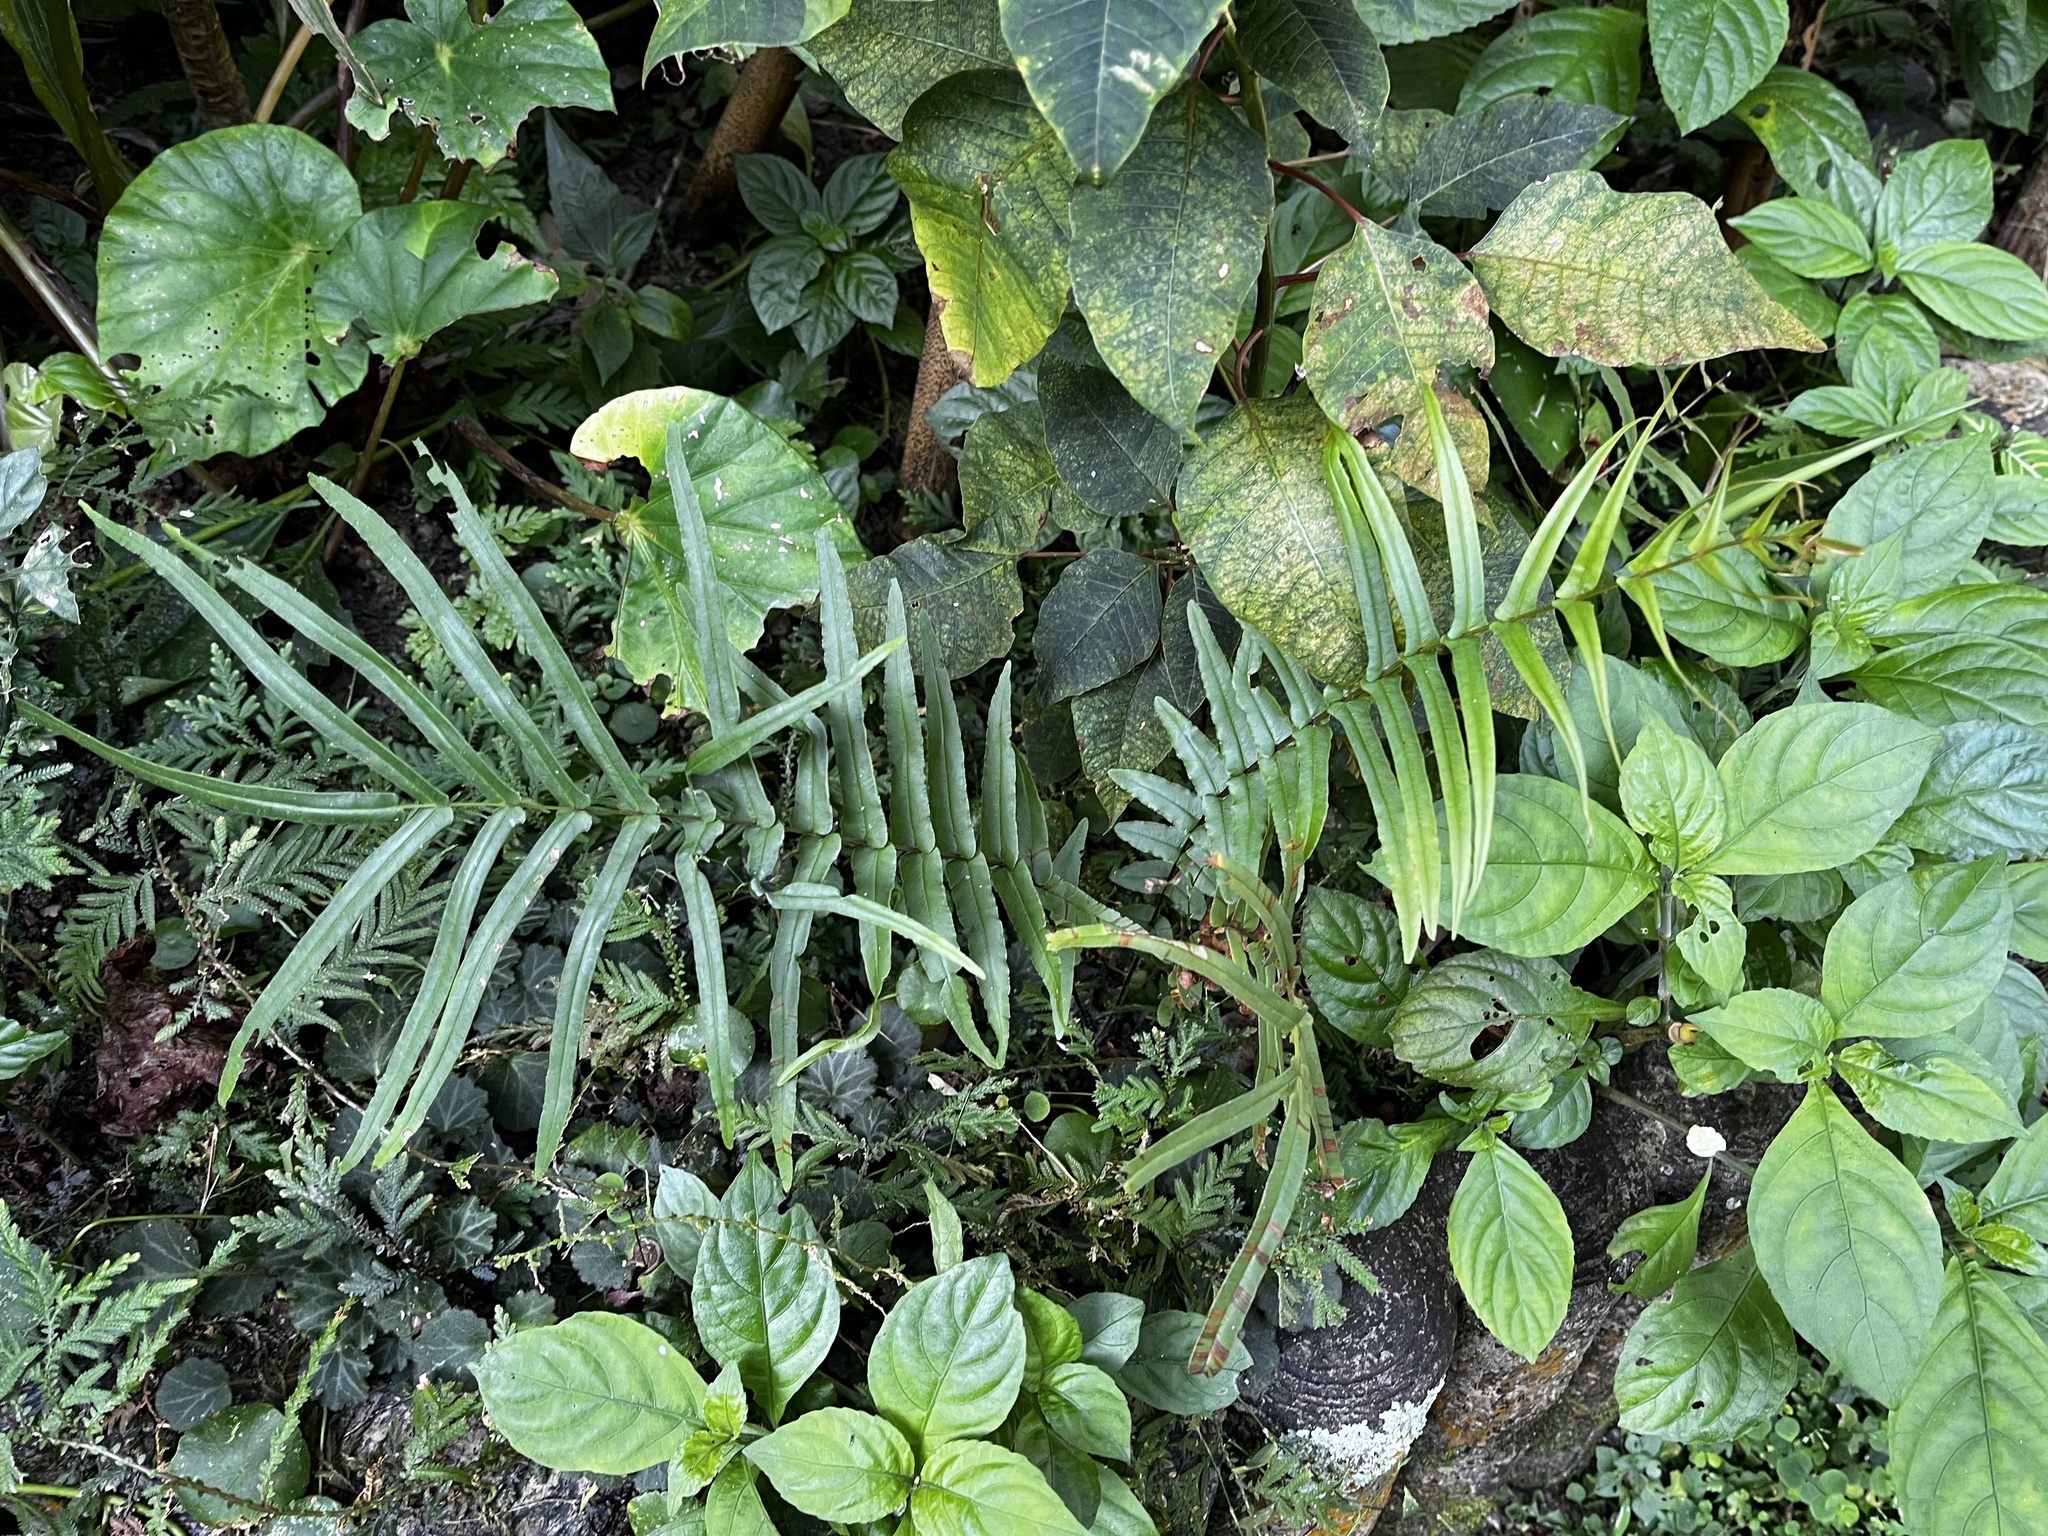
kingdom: Plantae
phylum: Tracheophyta
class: Polypodiopsida
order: Polypodiales
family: Pteridaceae
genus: Pteris
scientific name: Pteris vittata
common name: Ladder brake
